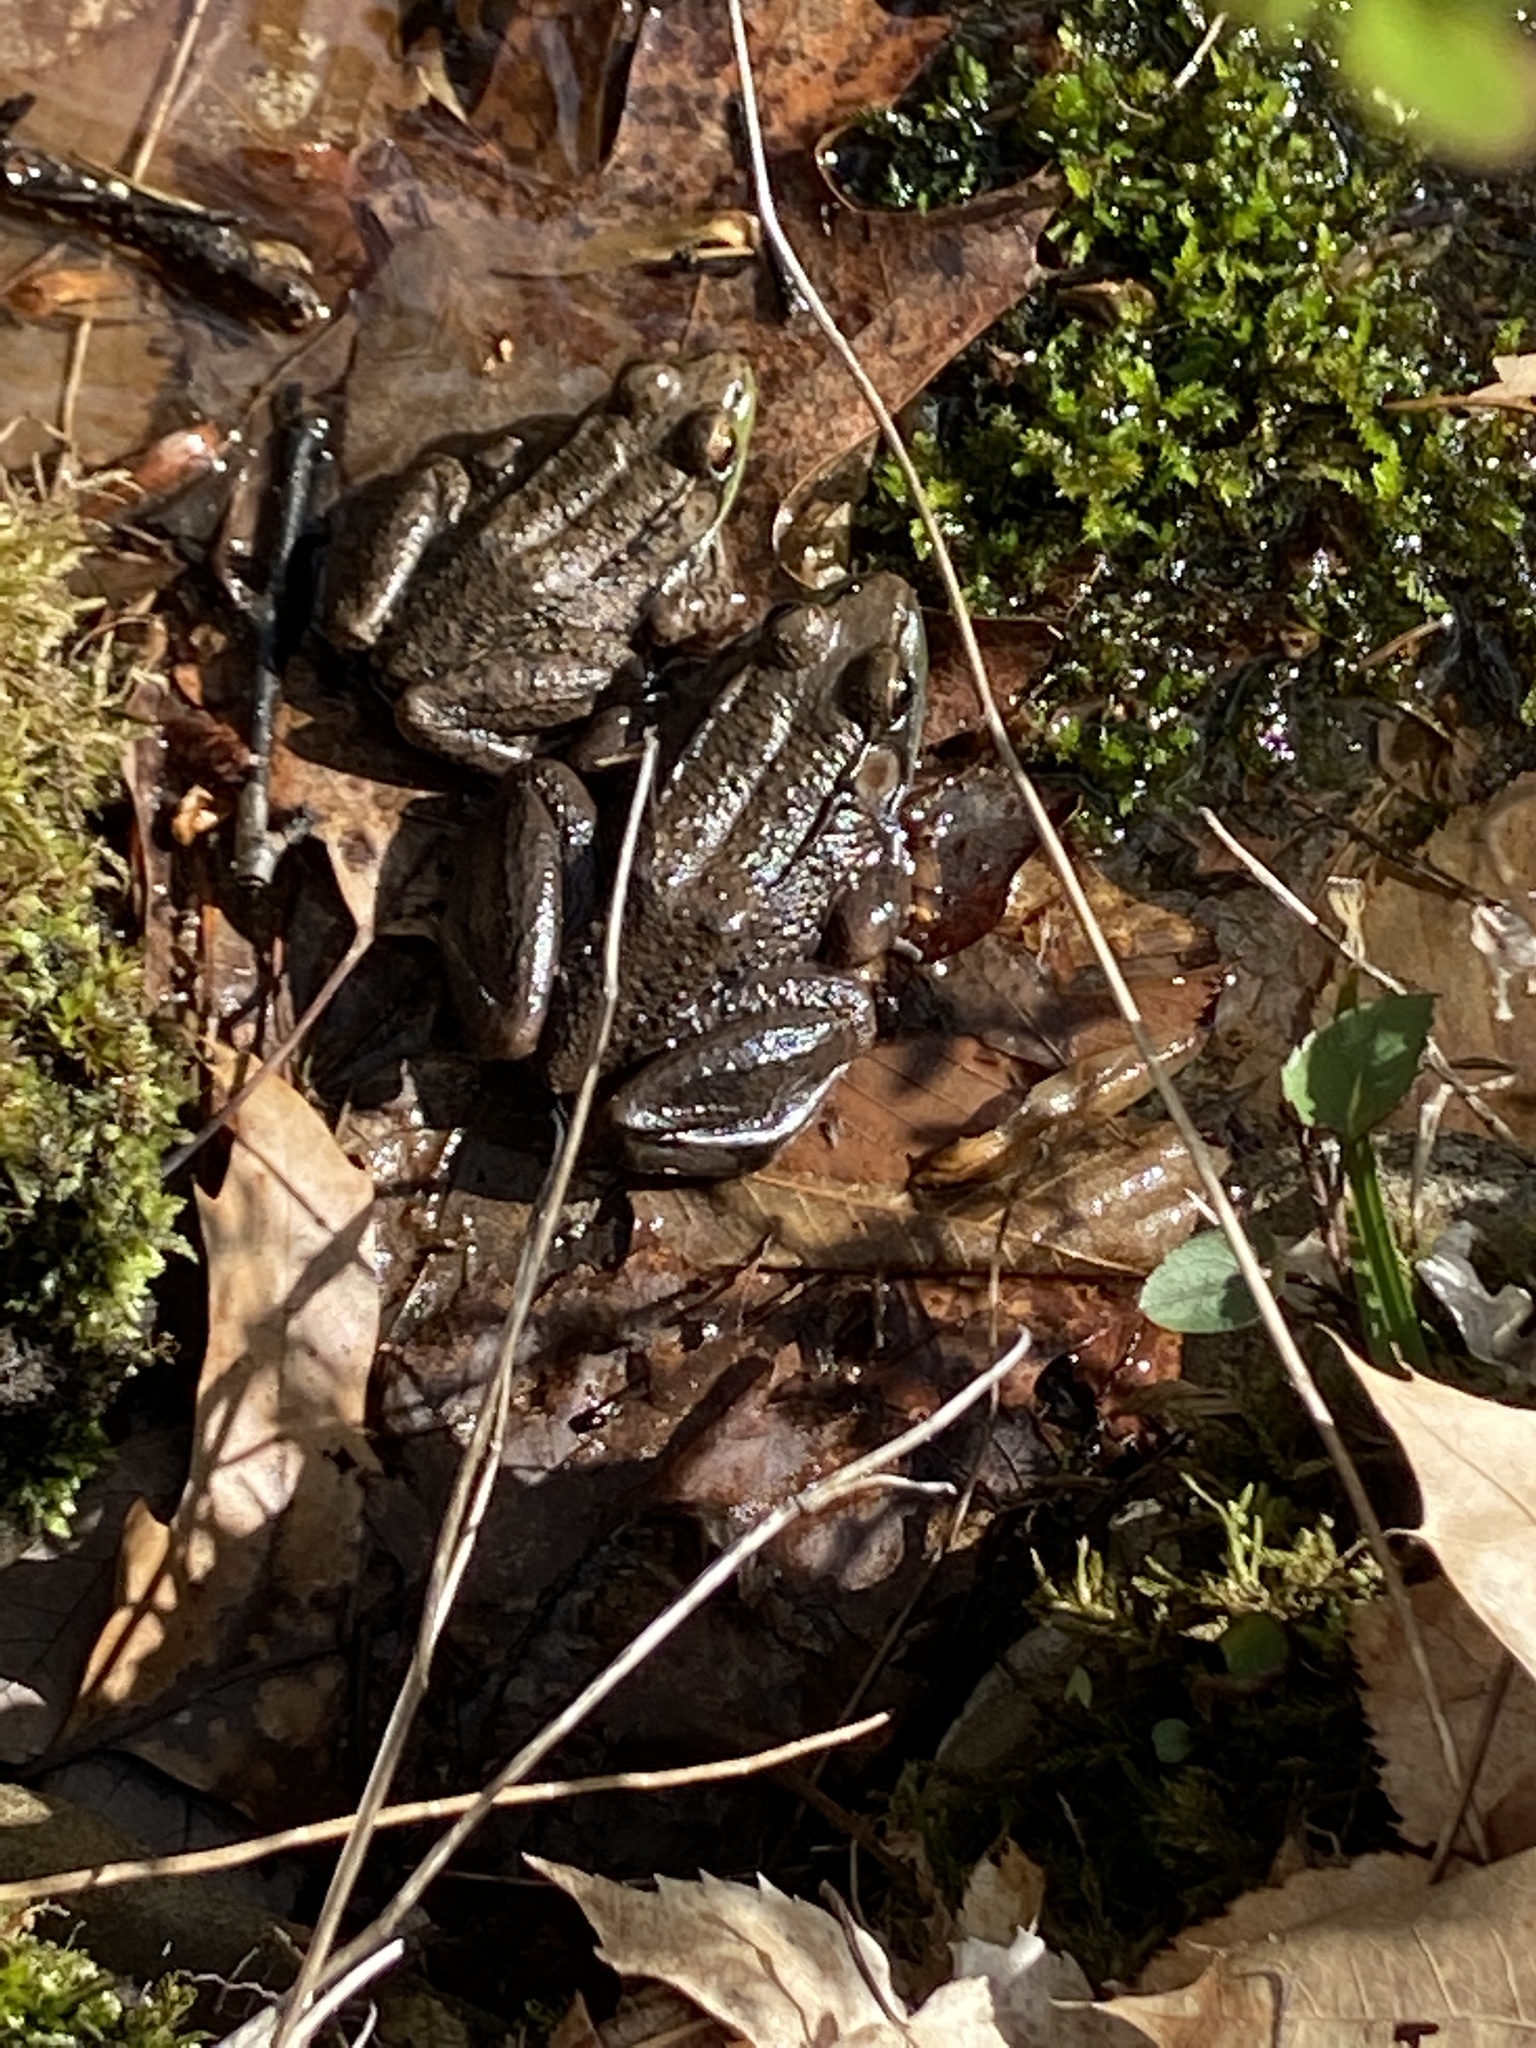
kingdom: Animalia
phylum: Chordata
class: Amphibia
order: Anura
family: Ranidae
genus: Lithobates
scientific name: Lithobates clamitans
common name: Green frog
